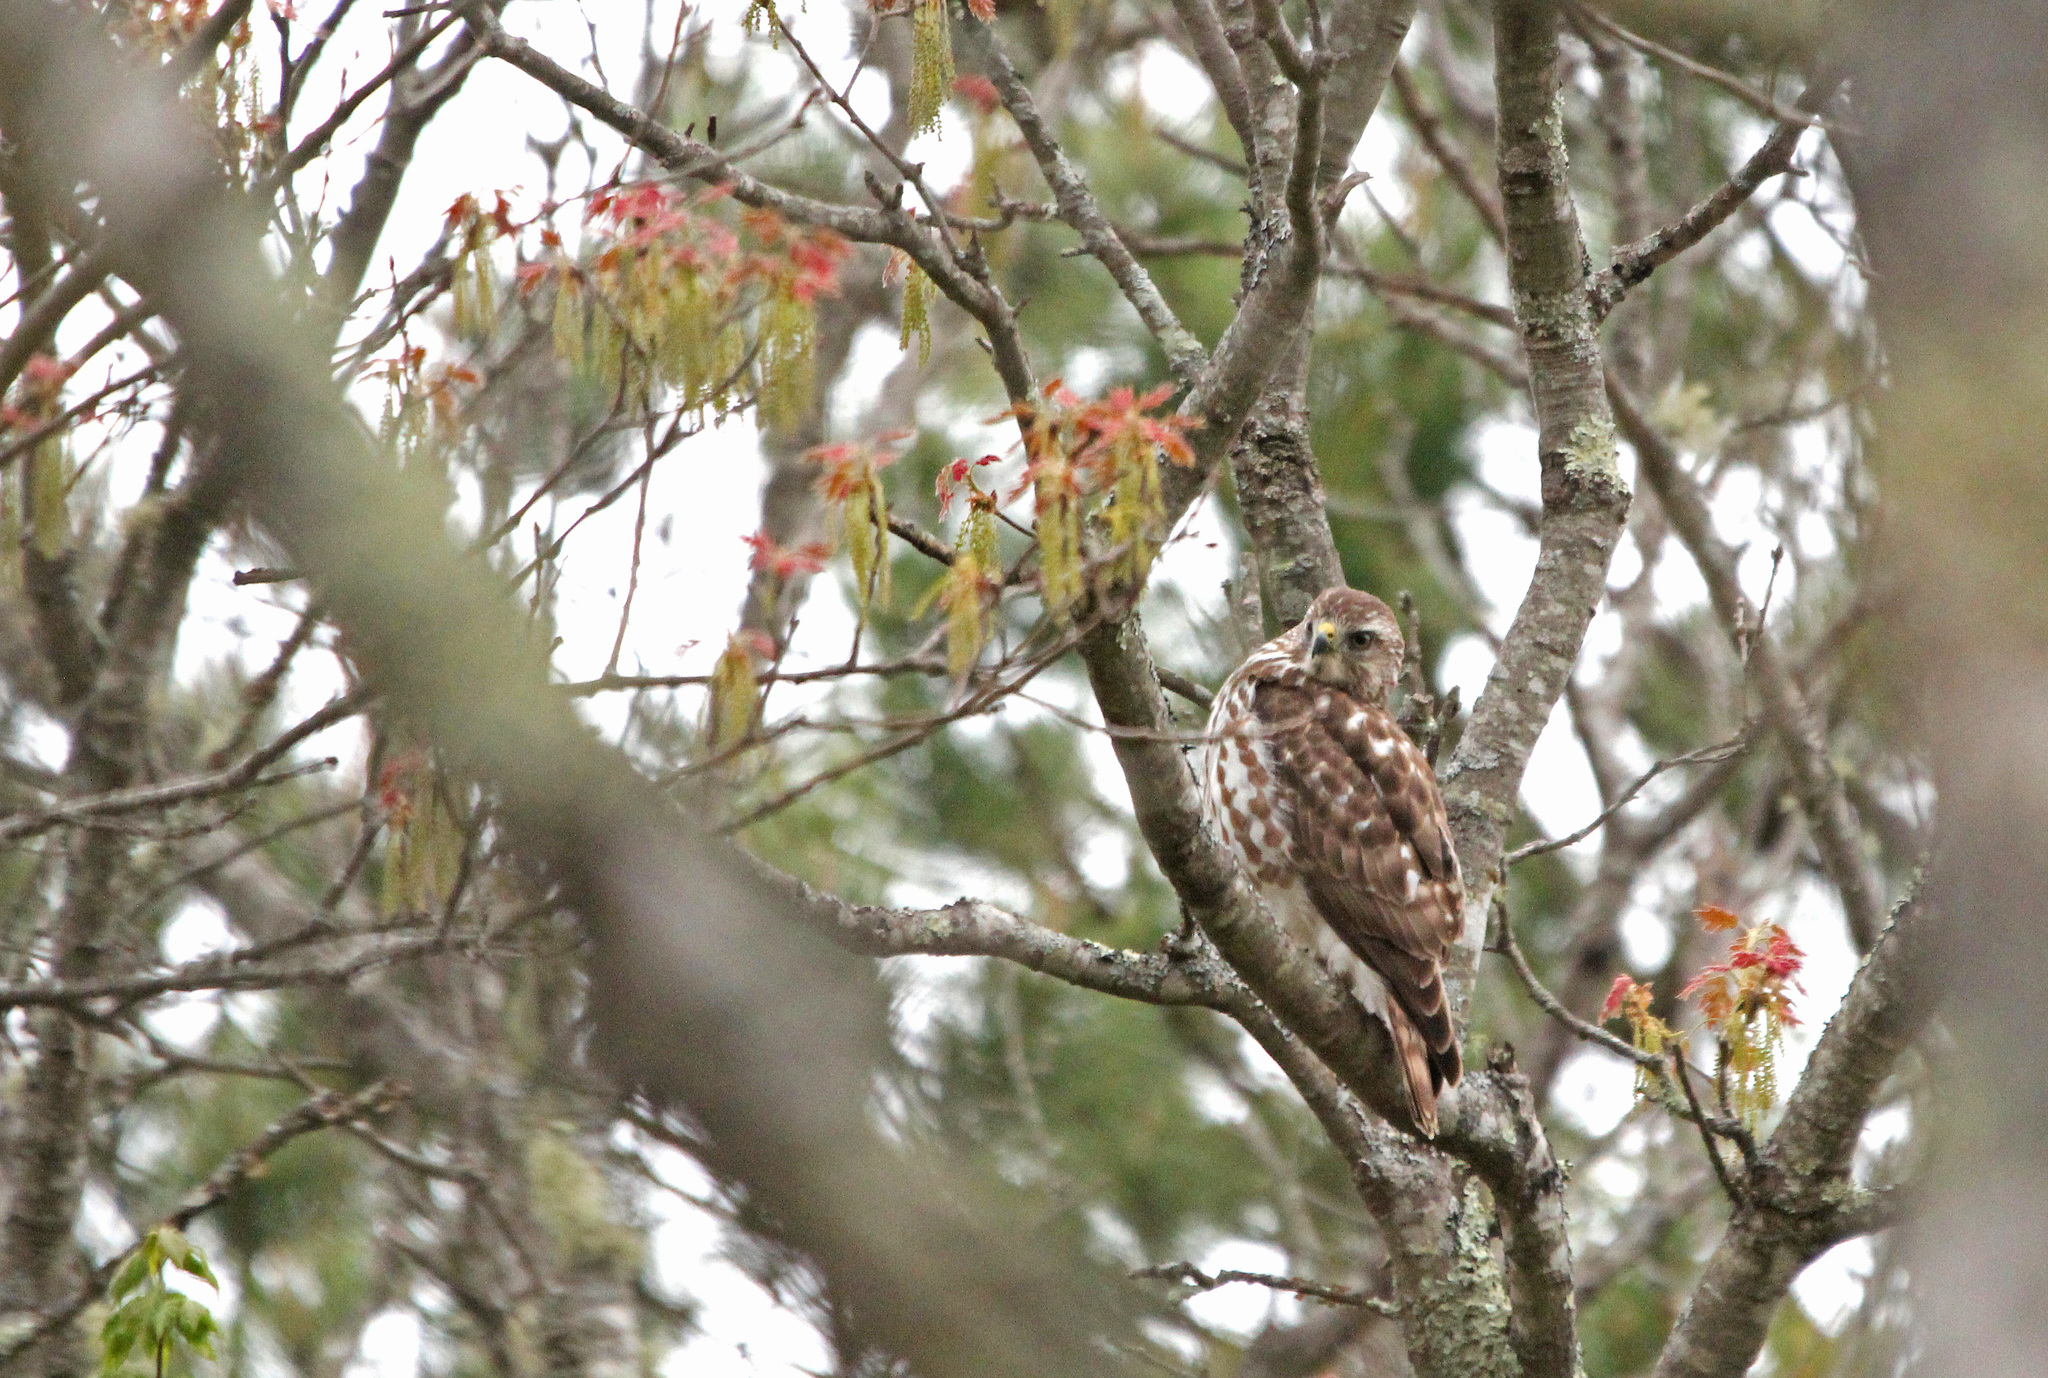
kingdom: Animalia
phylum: Chordata
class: Aves
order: Accipitriformes
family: Accipitridae
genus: Buteo
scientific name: Buteo platypterus
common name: Broad-winged hawk
